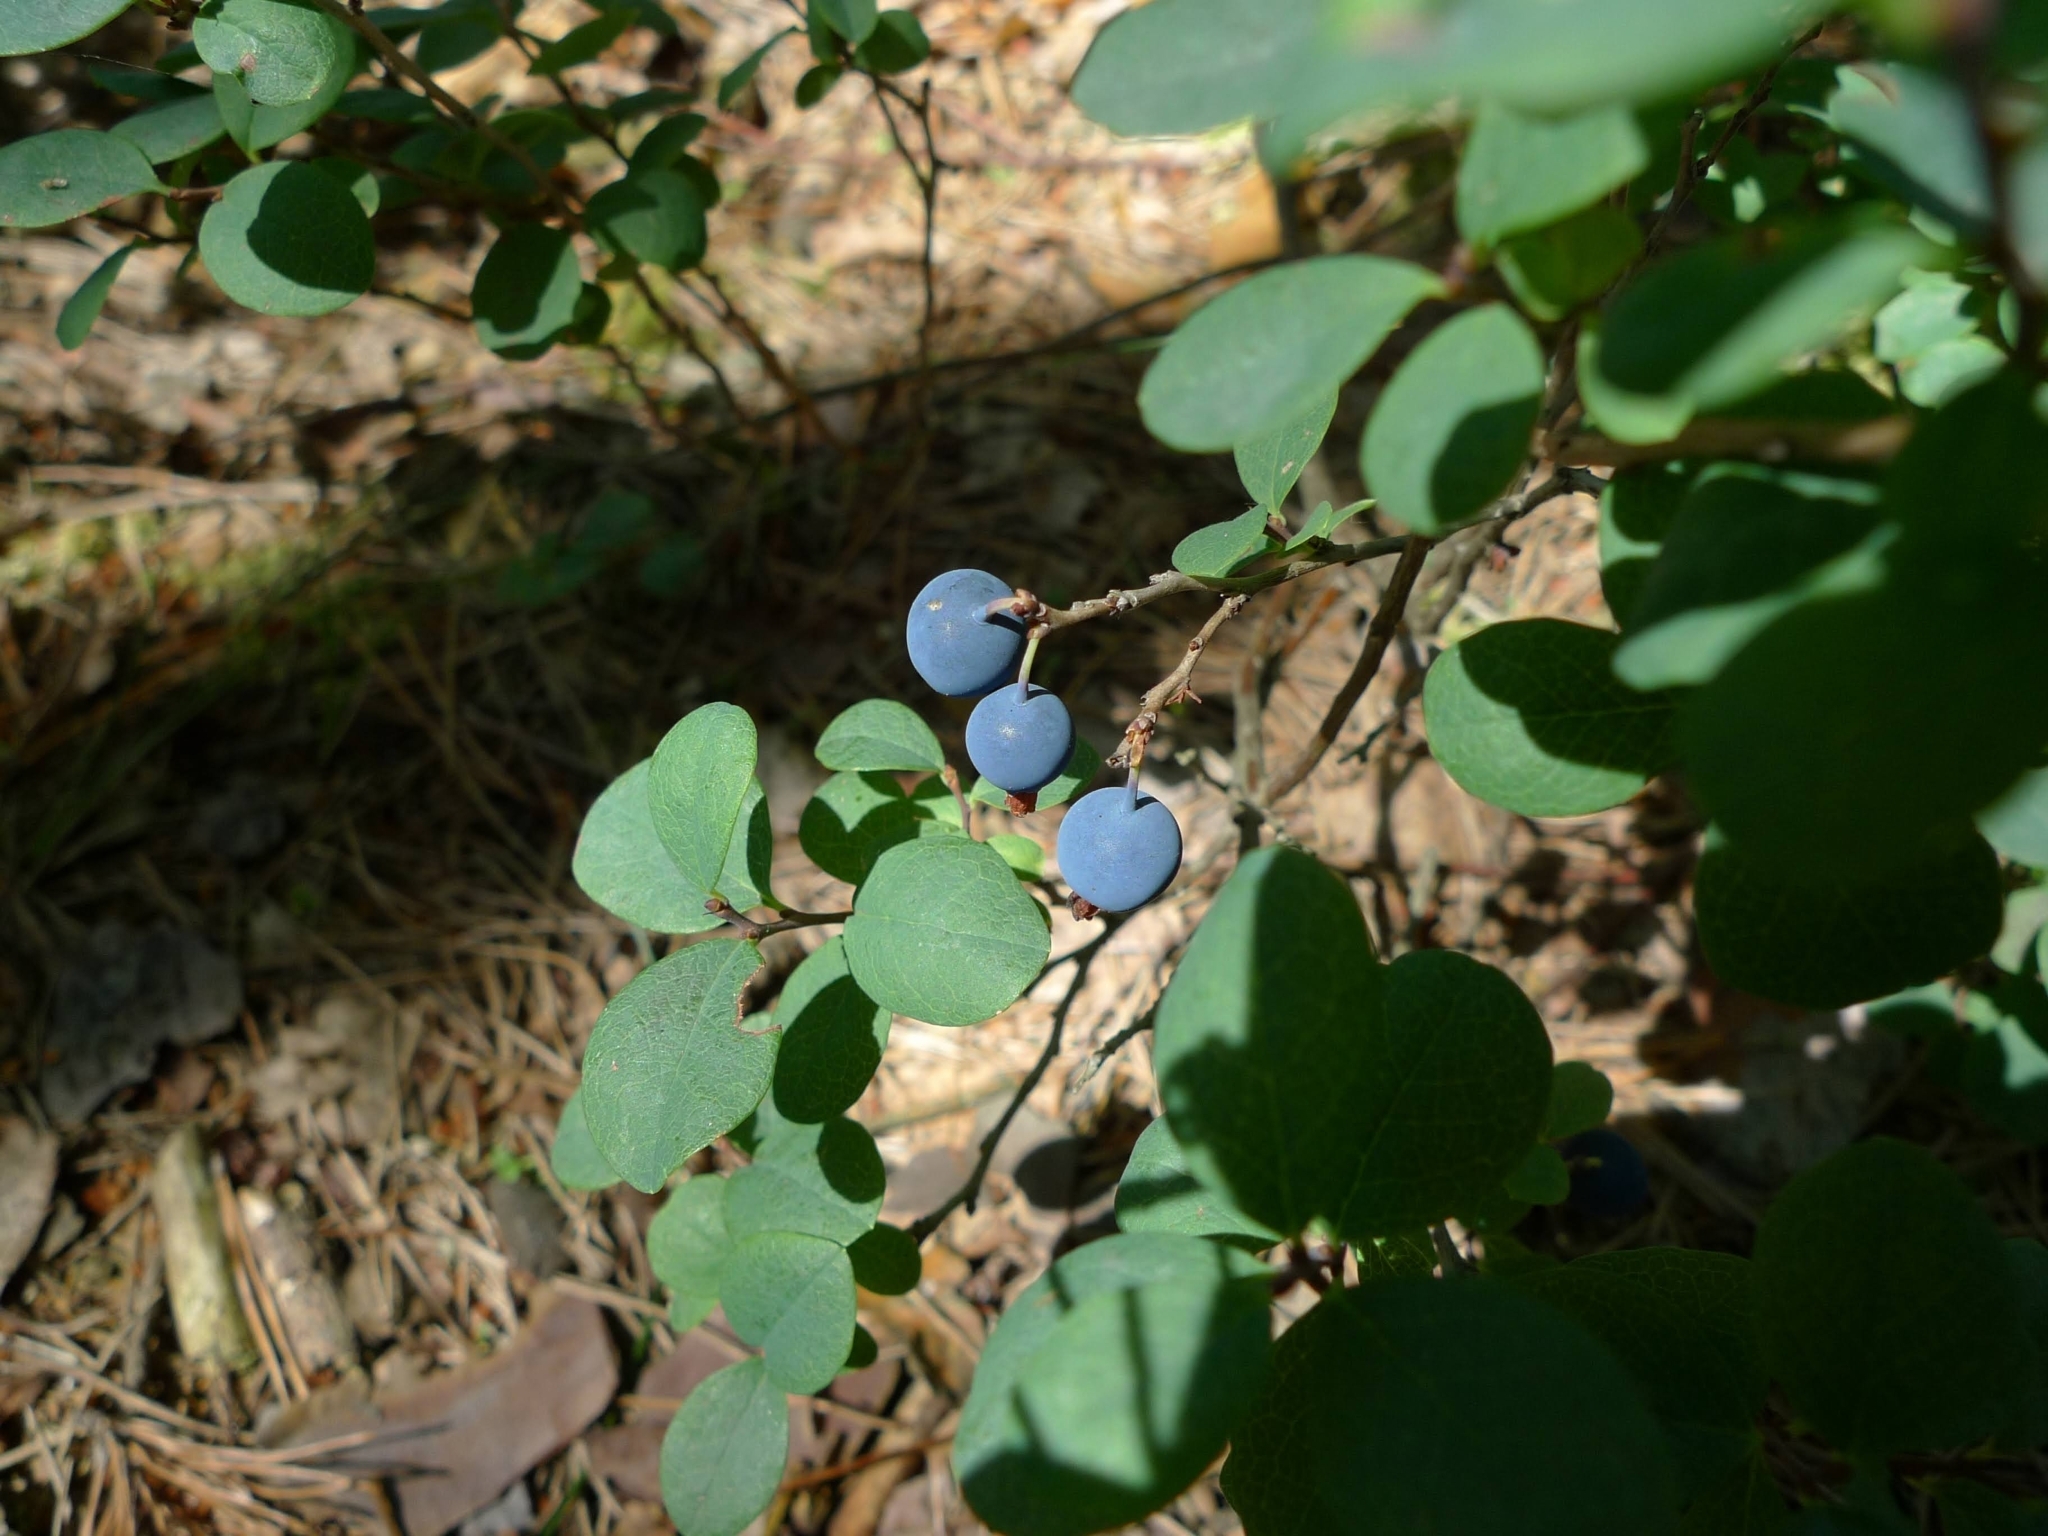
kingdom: Plantae
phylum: Tracheophyta
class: Magnoliopsida
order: Ericales
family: Ericaceae
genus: Vaccinium
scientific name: Vaccinium uliginosum
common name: Bog bilberry
